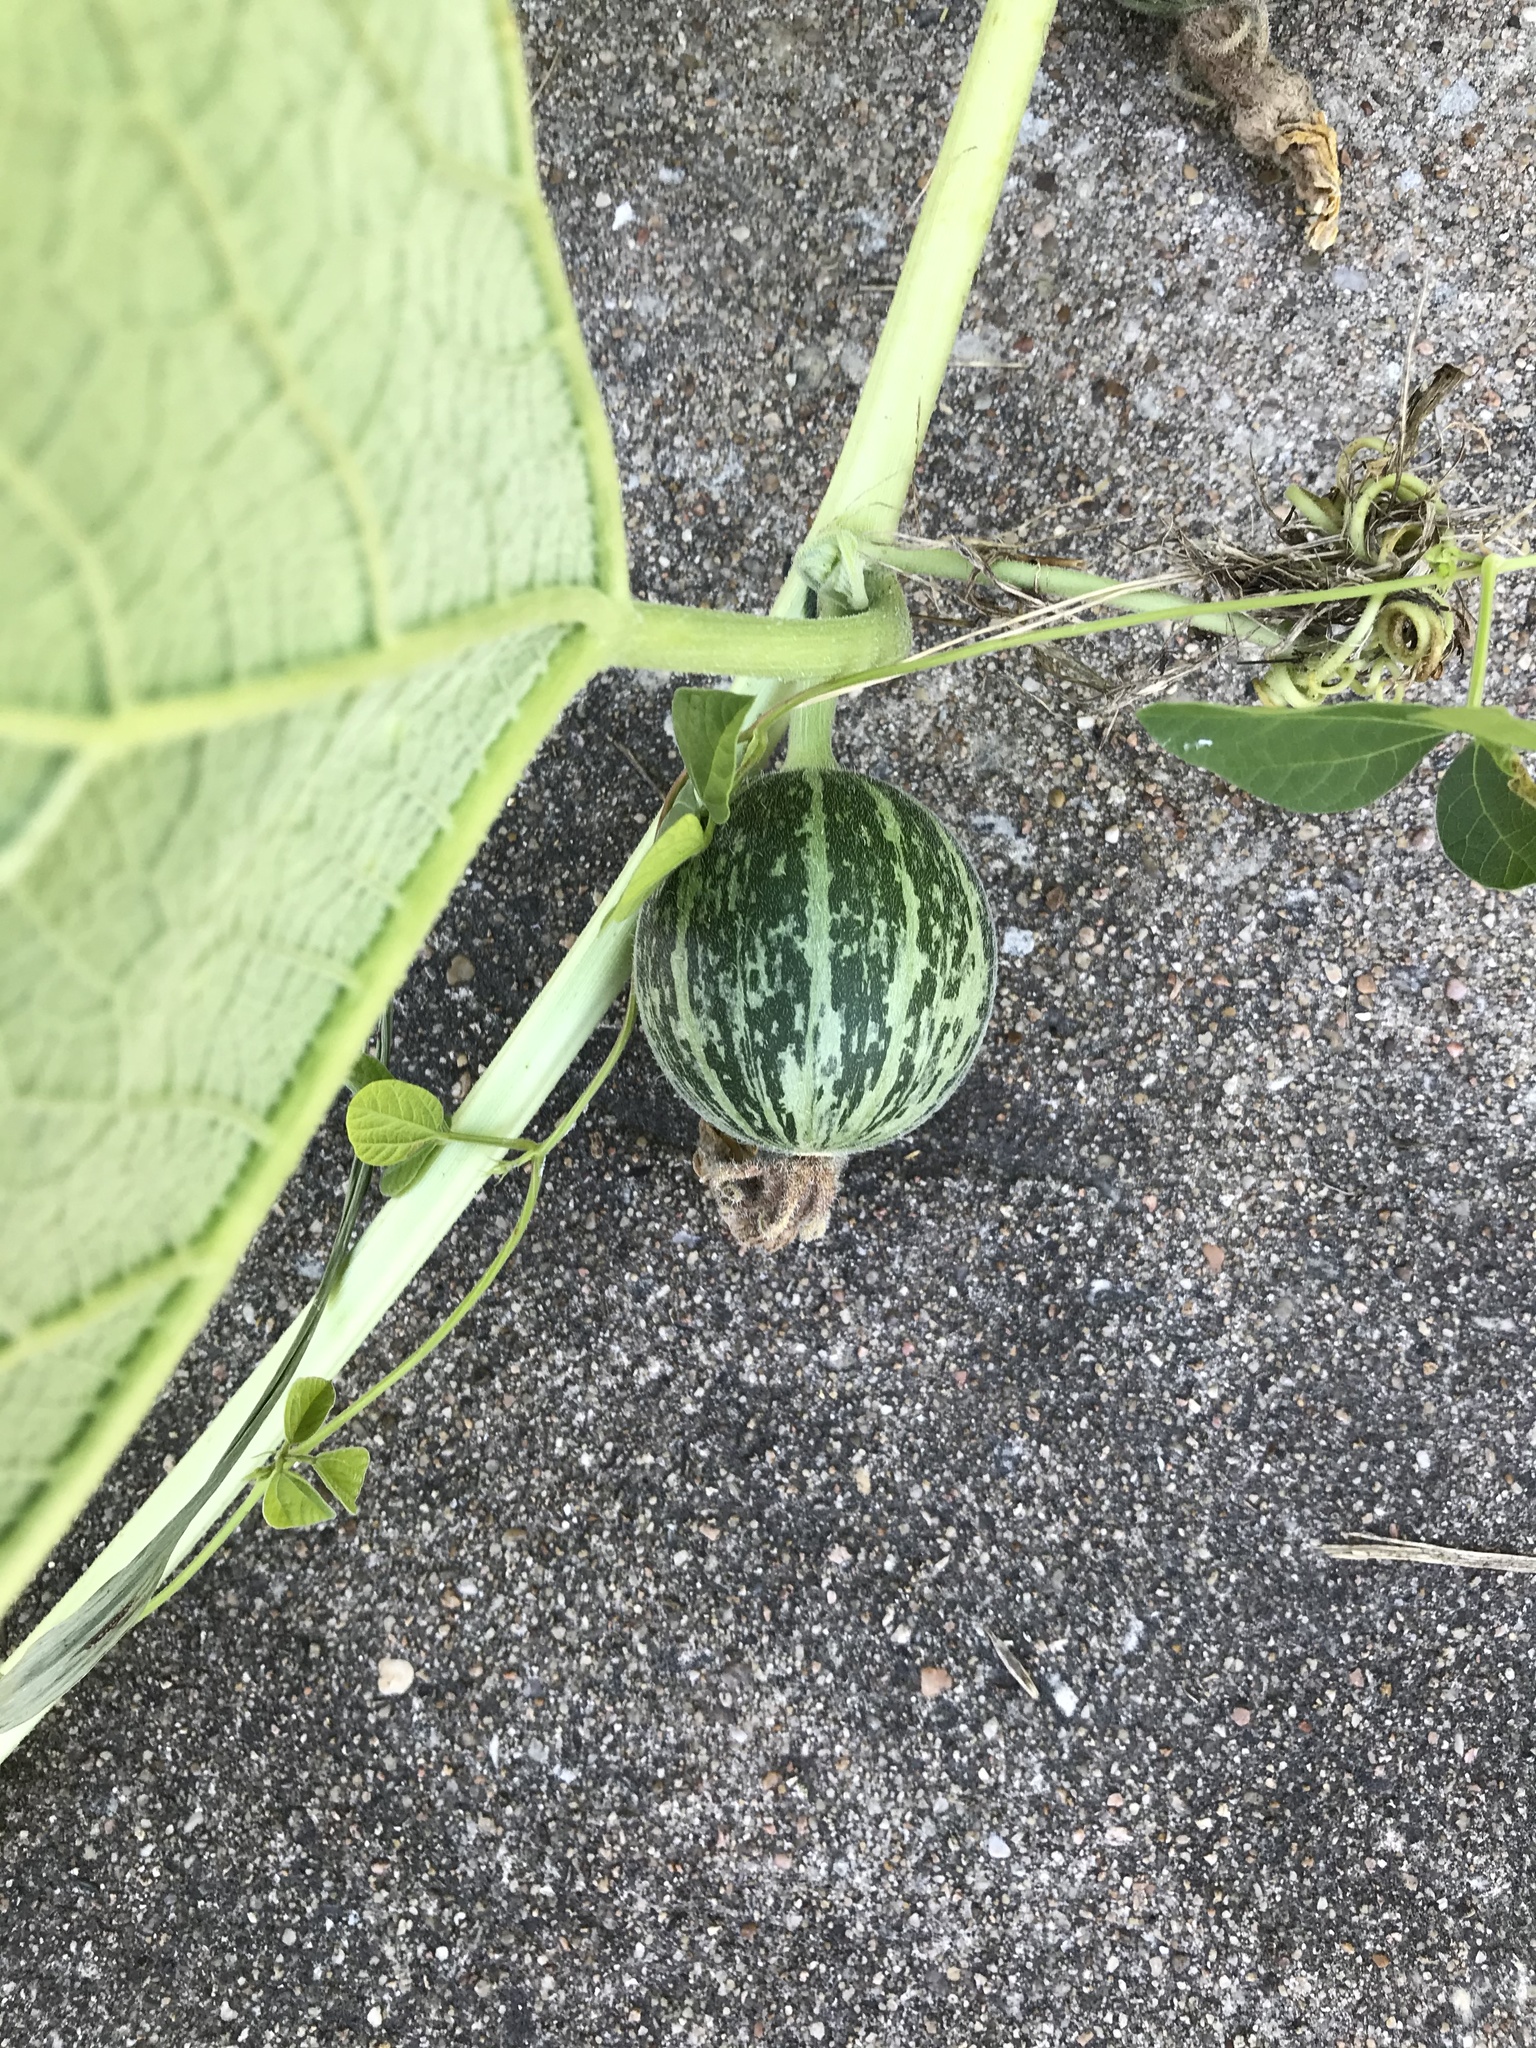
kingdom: Plantae
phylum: Tracheophyta
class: Magnoliopsida
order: Cucurbitales
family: Cucurbitaceae
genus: Cucurbita
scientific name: Cucurbita foetidissima
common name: Buffalo gourd
